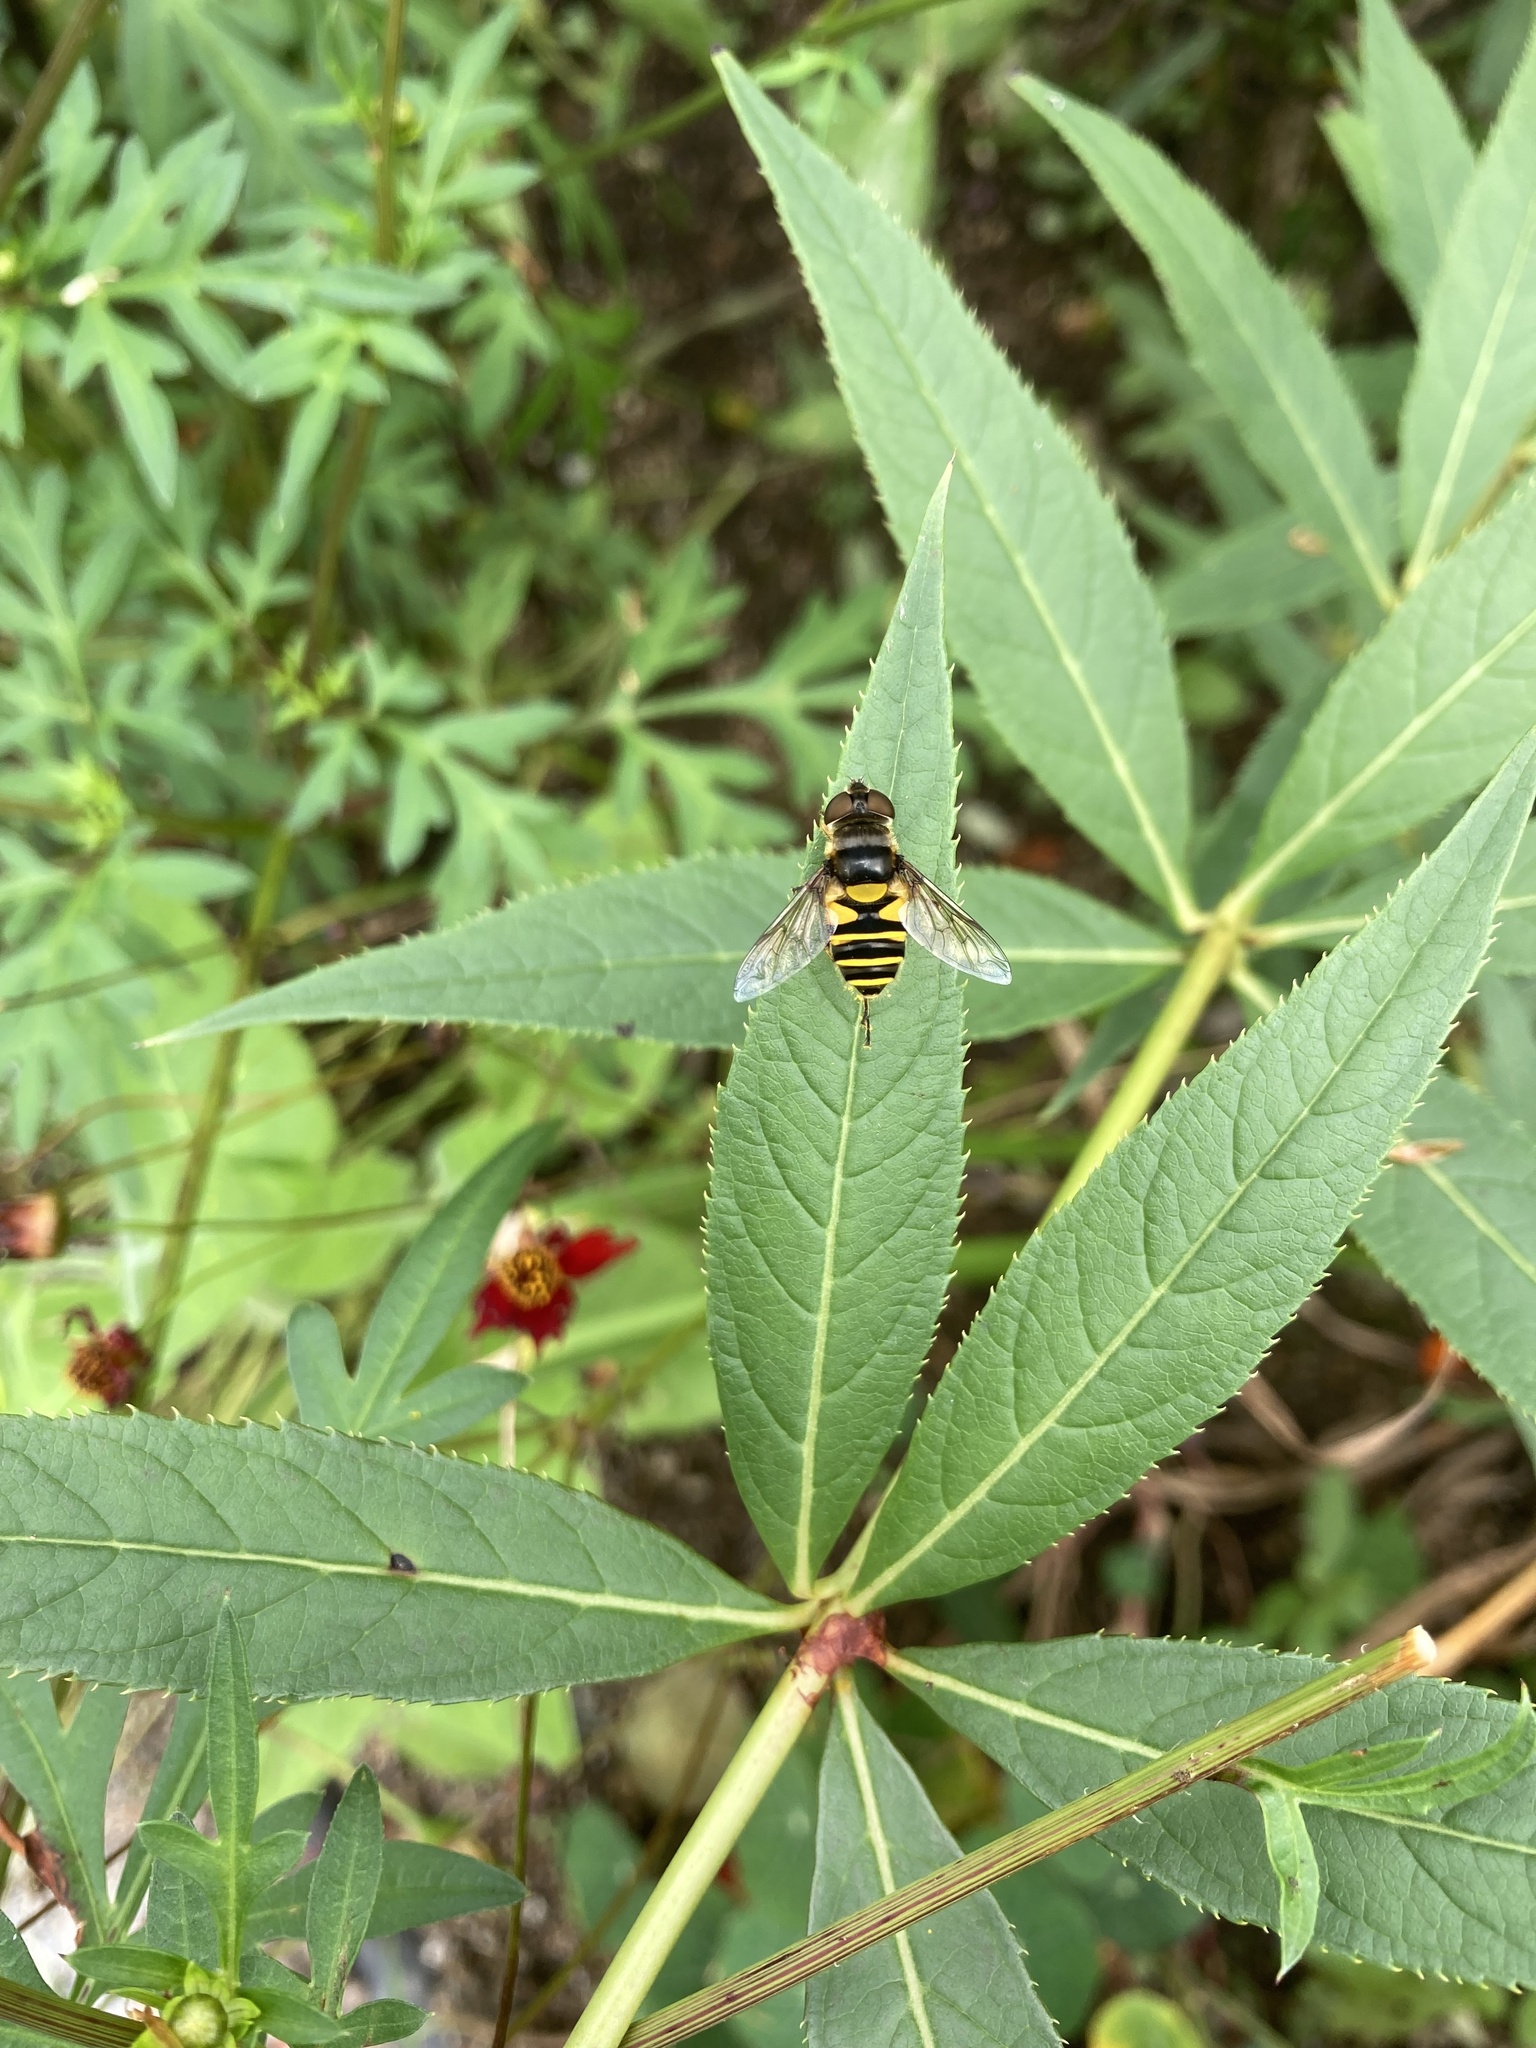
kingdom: Animalia
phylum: Arthropoda
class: Insecta
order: Diptera
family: Syrphidae
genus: Eristalis
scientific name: Eristalis transversa
